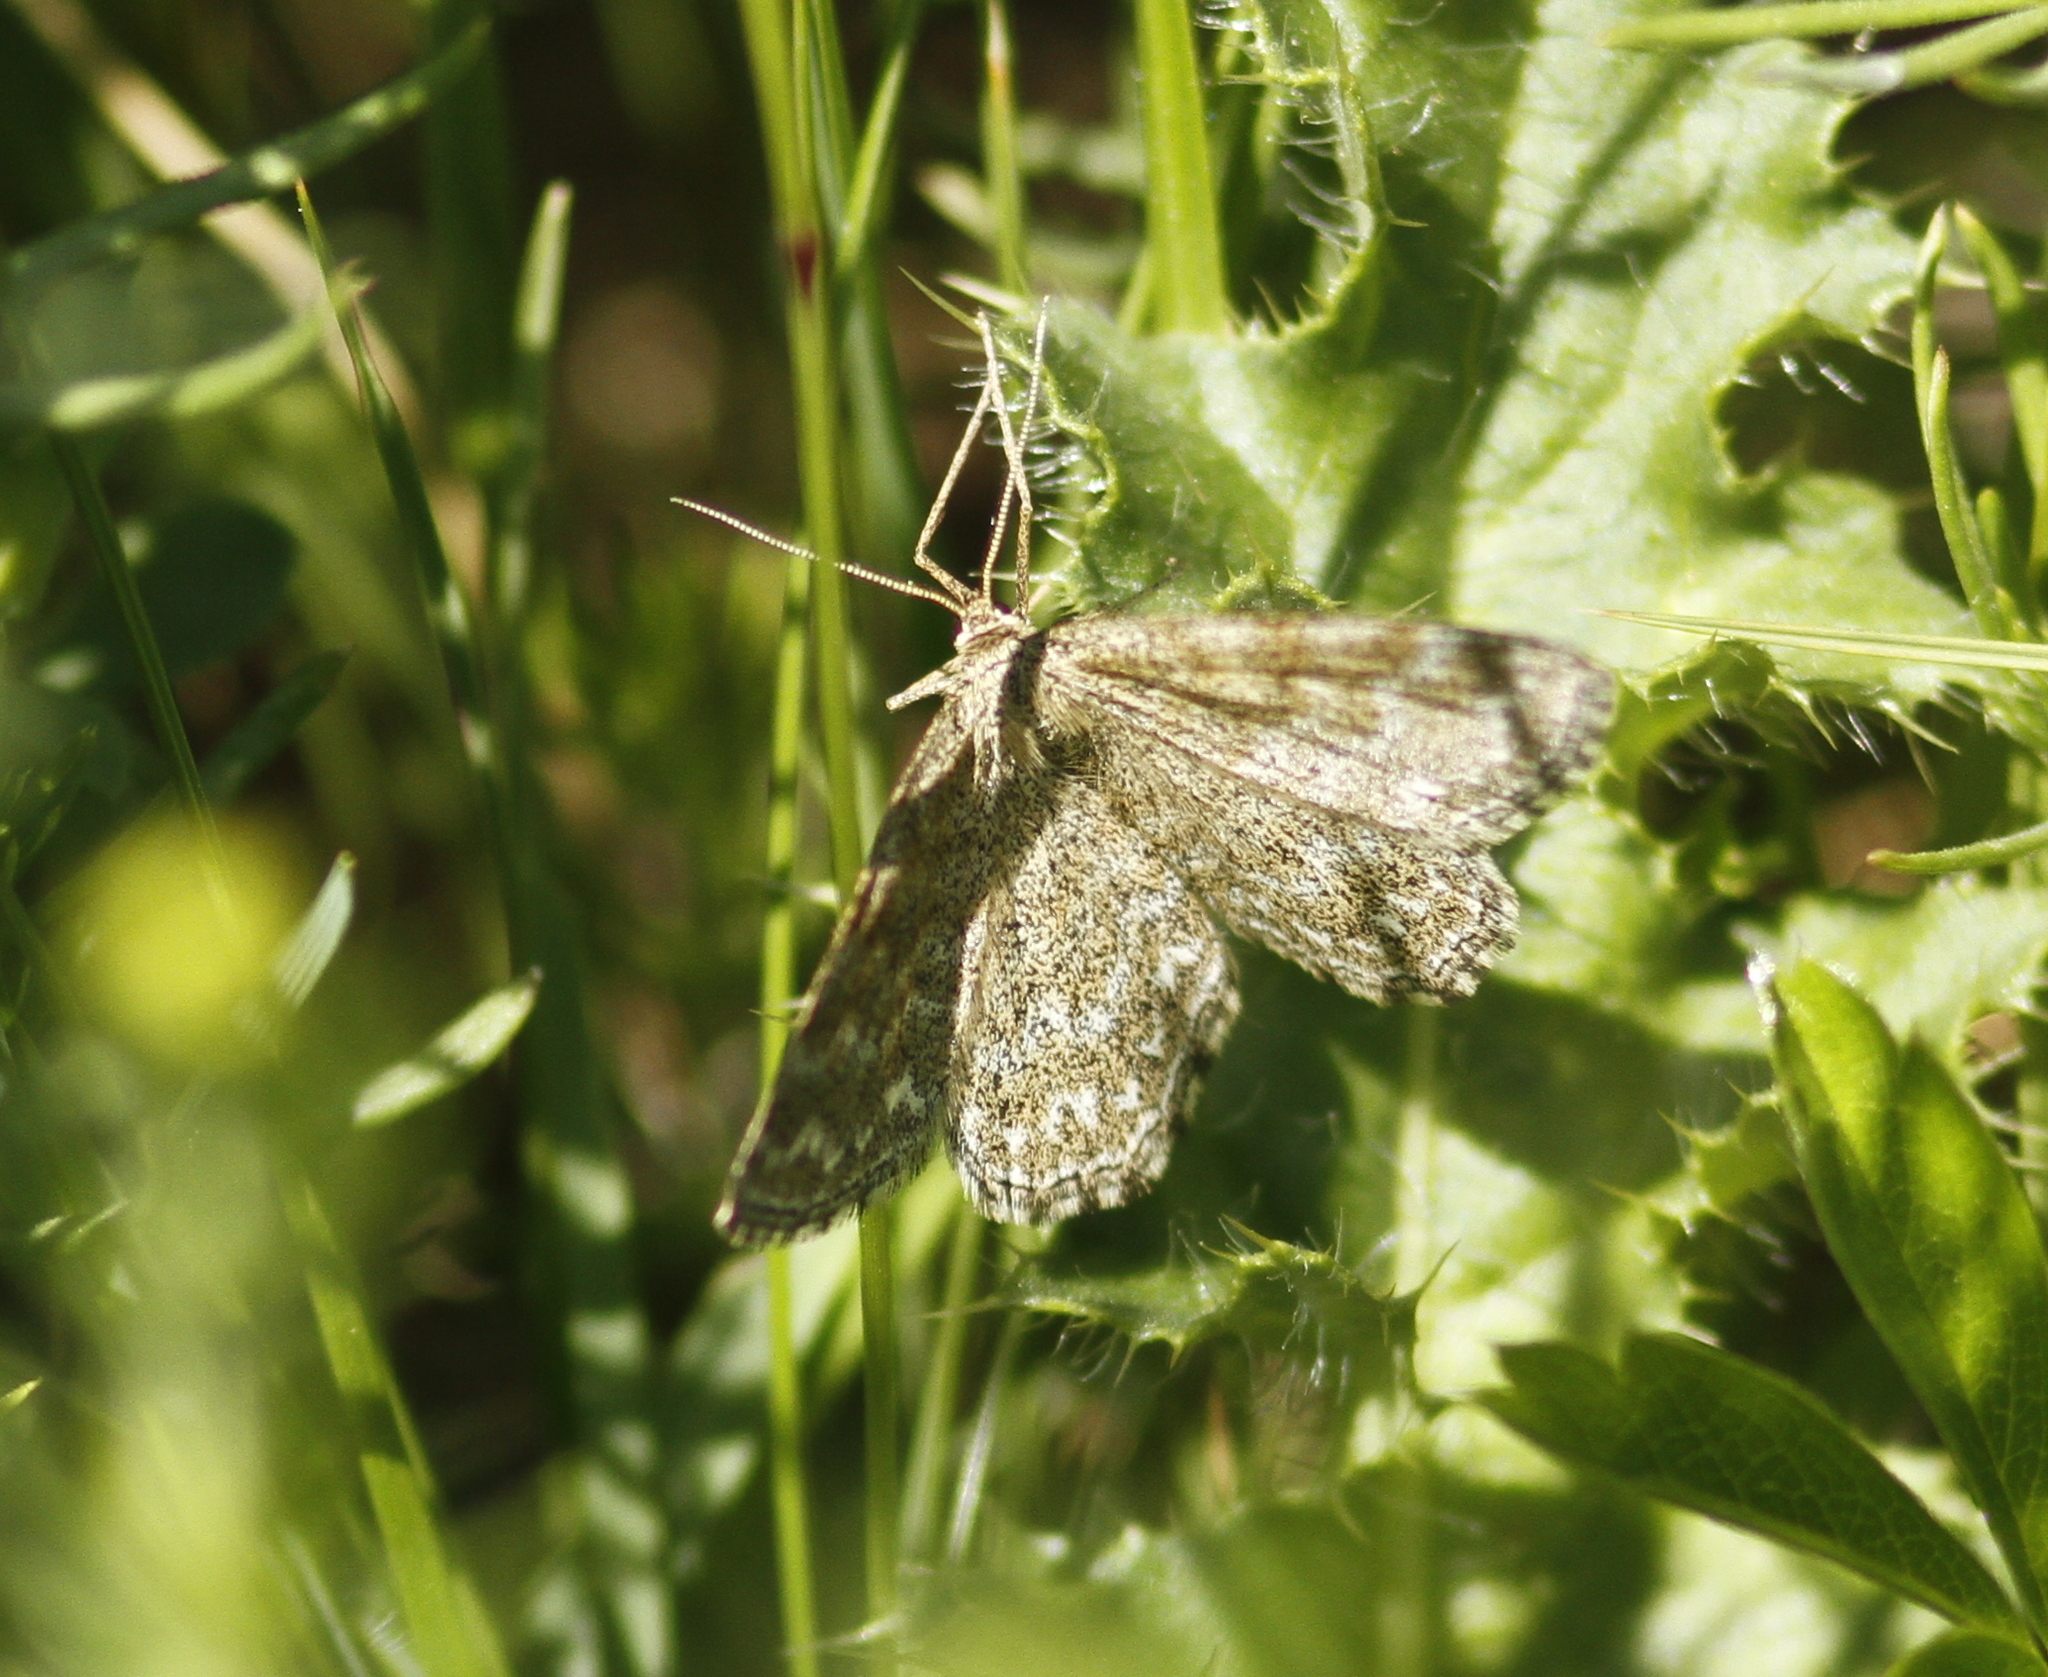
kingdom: Animalia
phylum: Arthropoda
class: Insecta
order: Lepidoptera
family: Geometridae
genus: Scopula
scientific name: Scopula immorata
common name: Lewes wave
